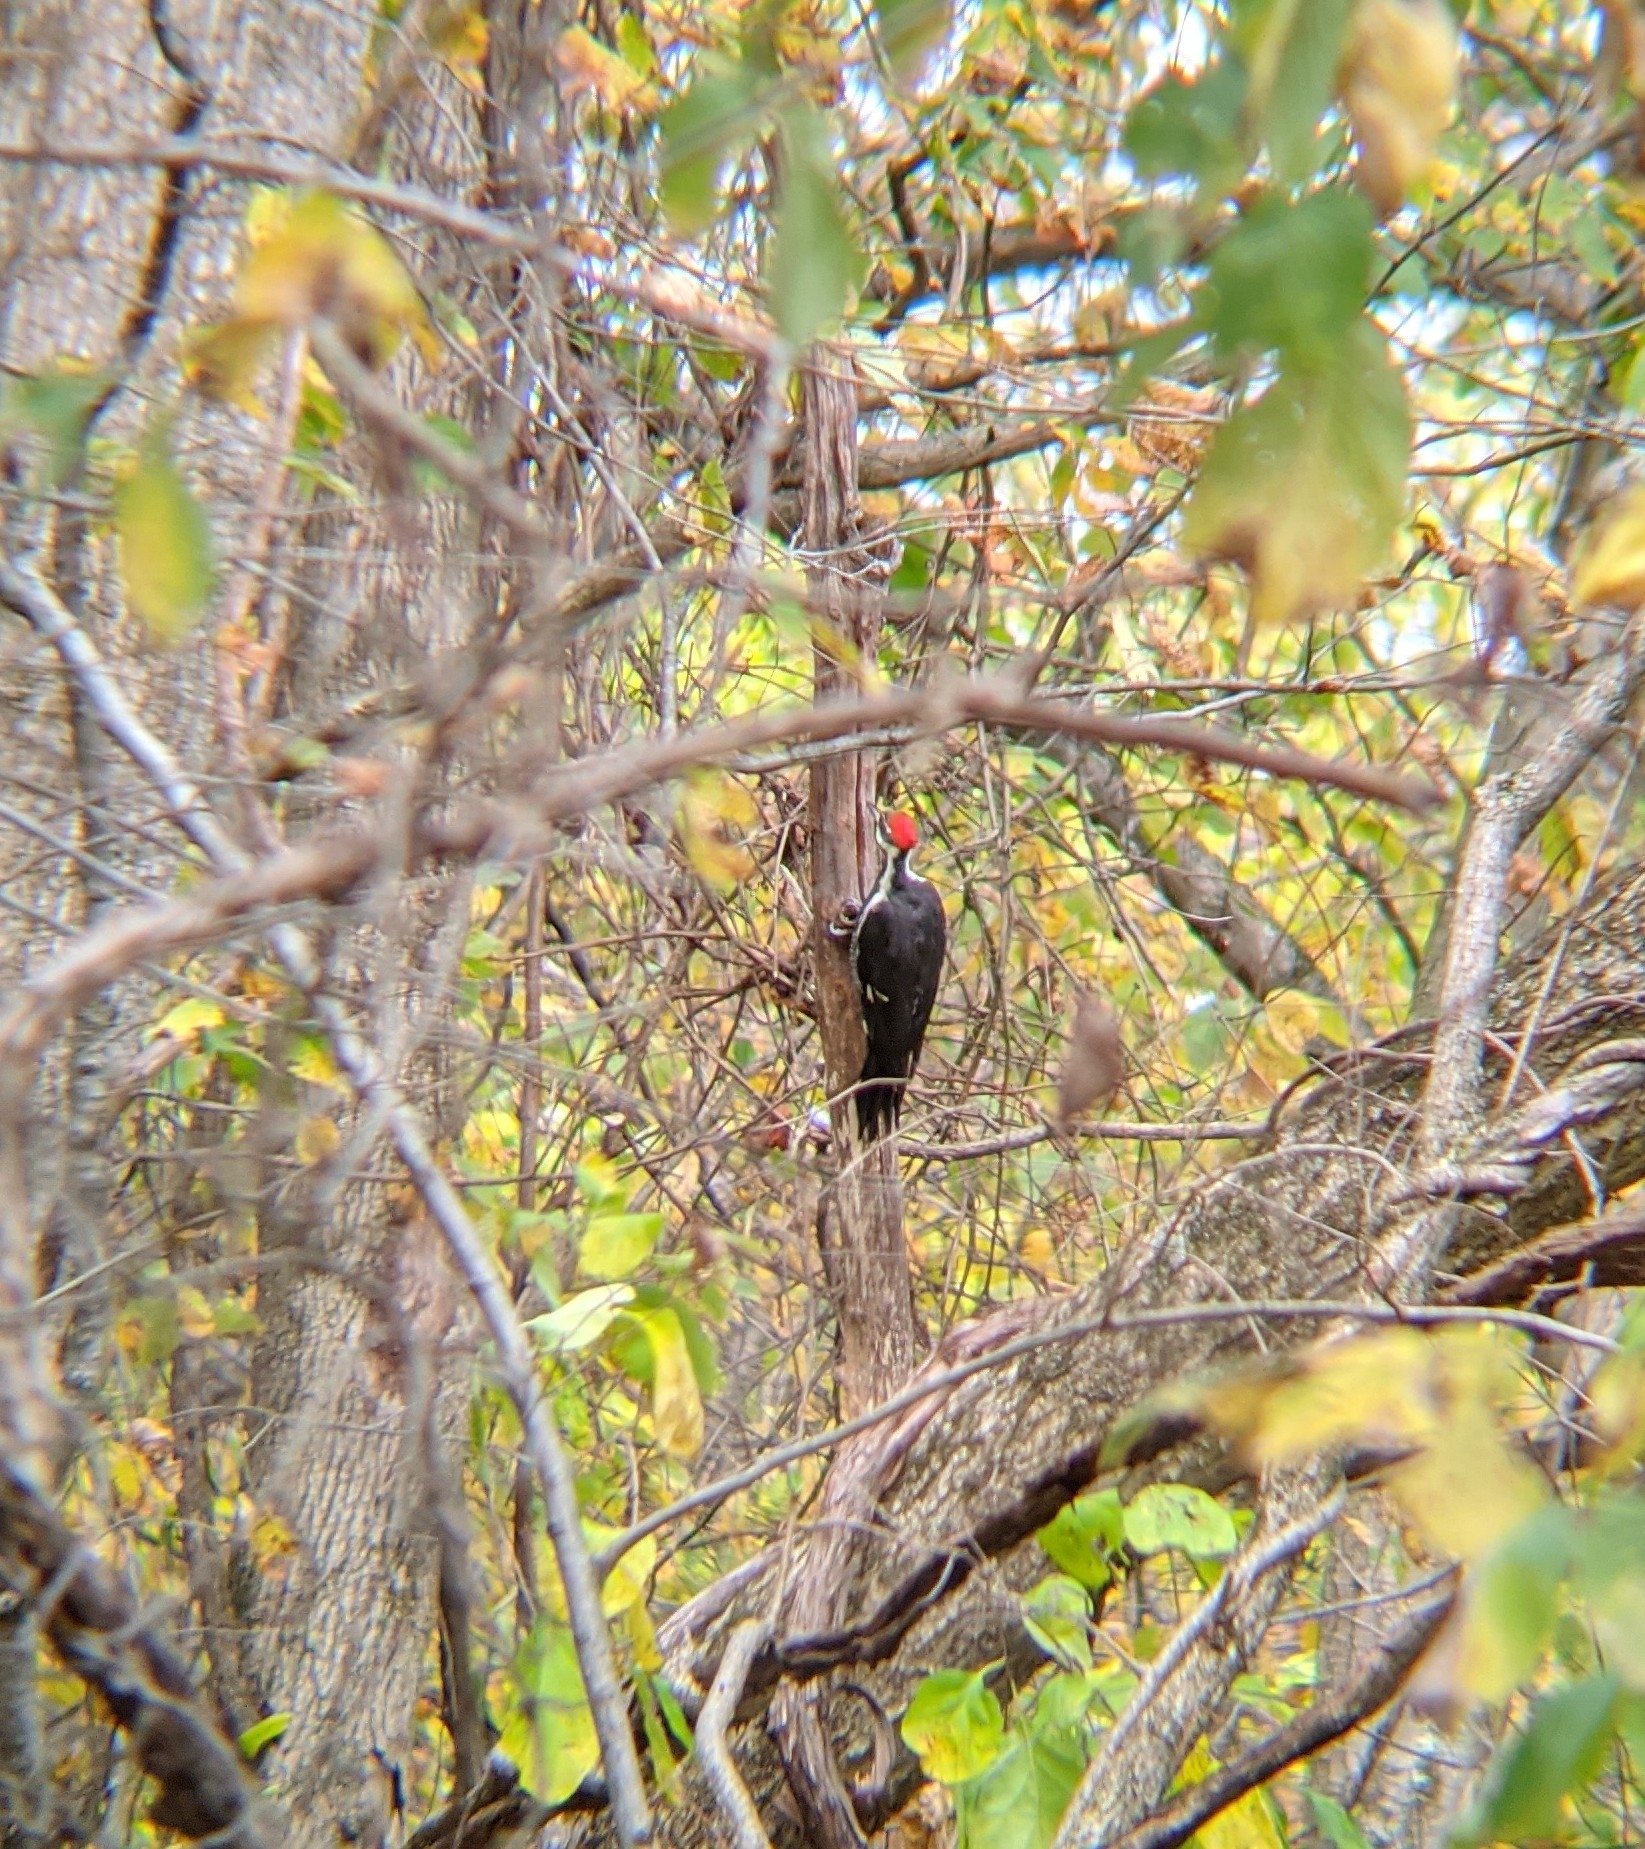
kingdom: Animalia
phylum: Chordata
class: Aves
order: Piciformes
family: Picidae
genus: Dryocopus
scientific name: Dryocopus pileatus
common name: Pileated woodpecker
